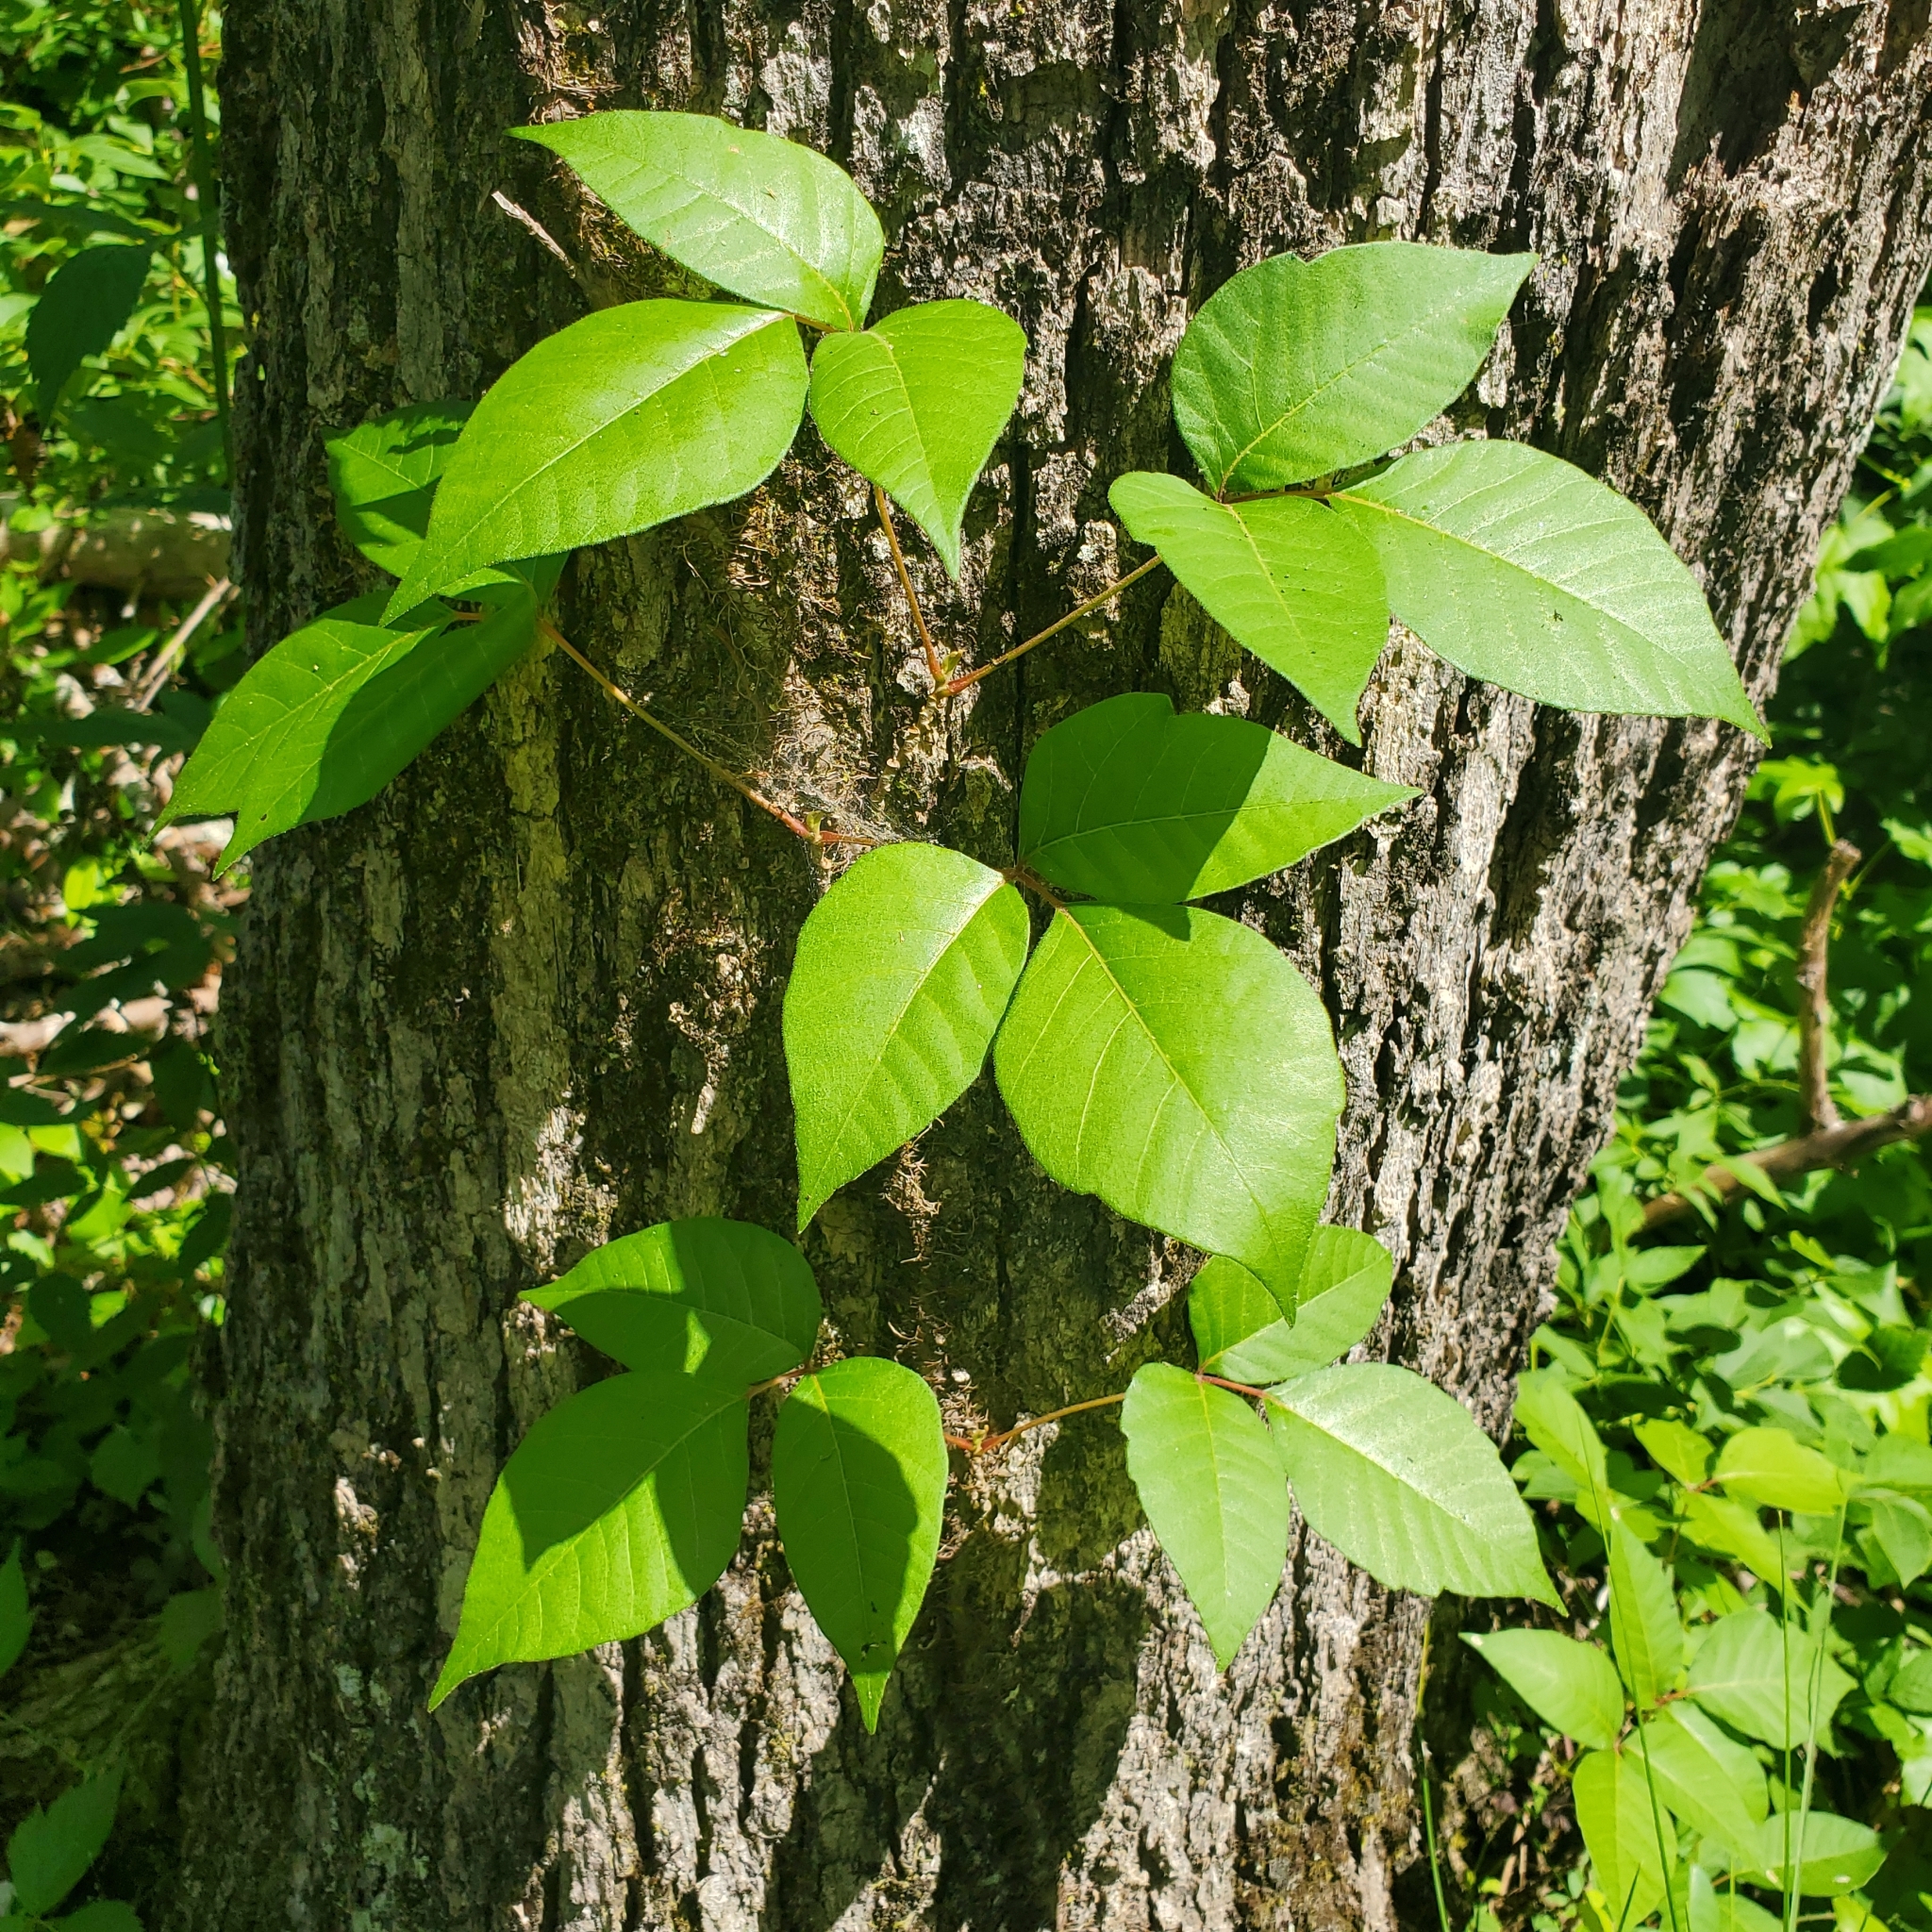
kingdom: Plantae
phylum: Tracheophyta
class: Magnoliopsida
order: Sapindales
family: Anacardiaceae
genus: Toxicodendron
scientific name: Toxicodendron radicans
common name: Poison ivy
